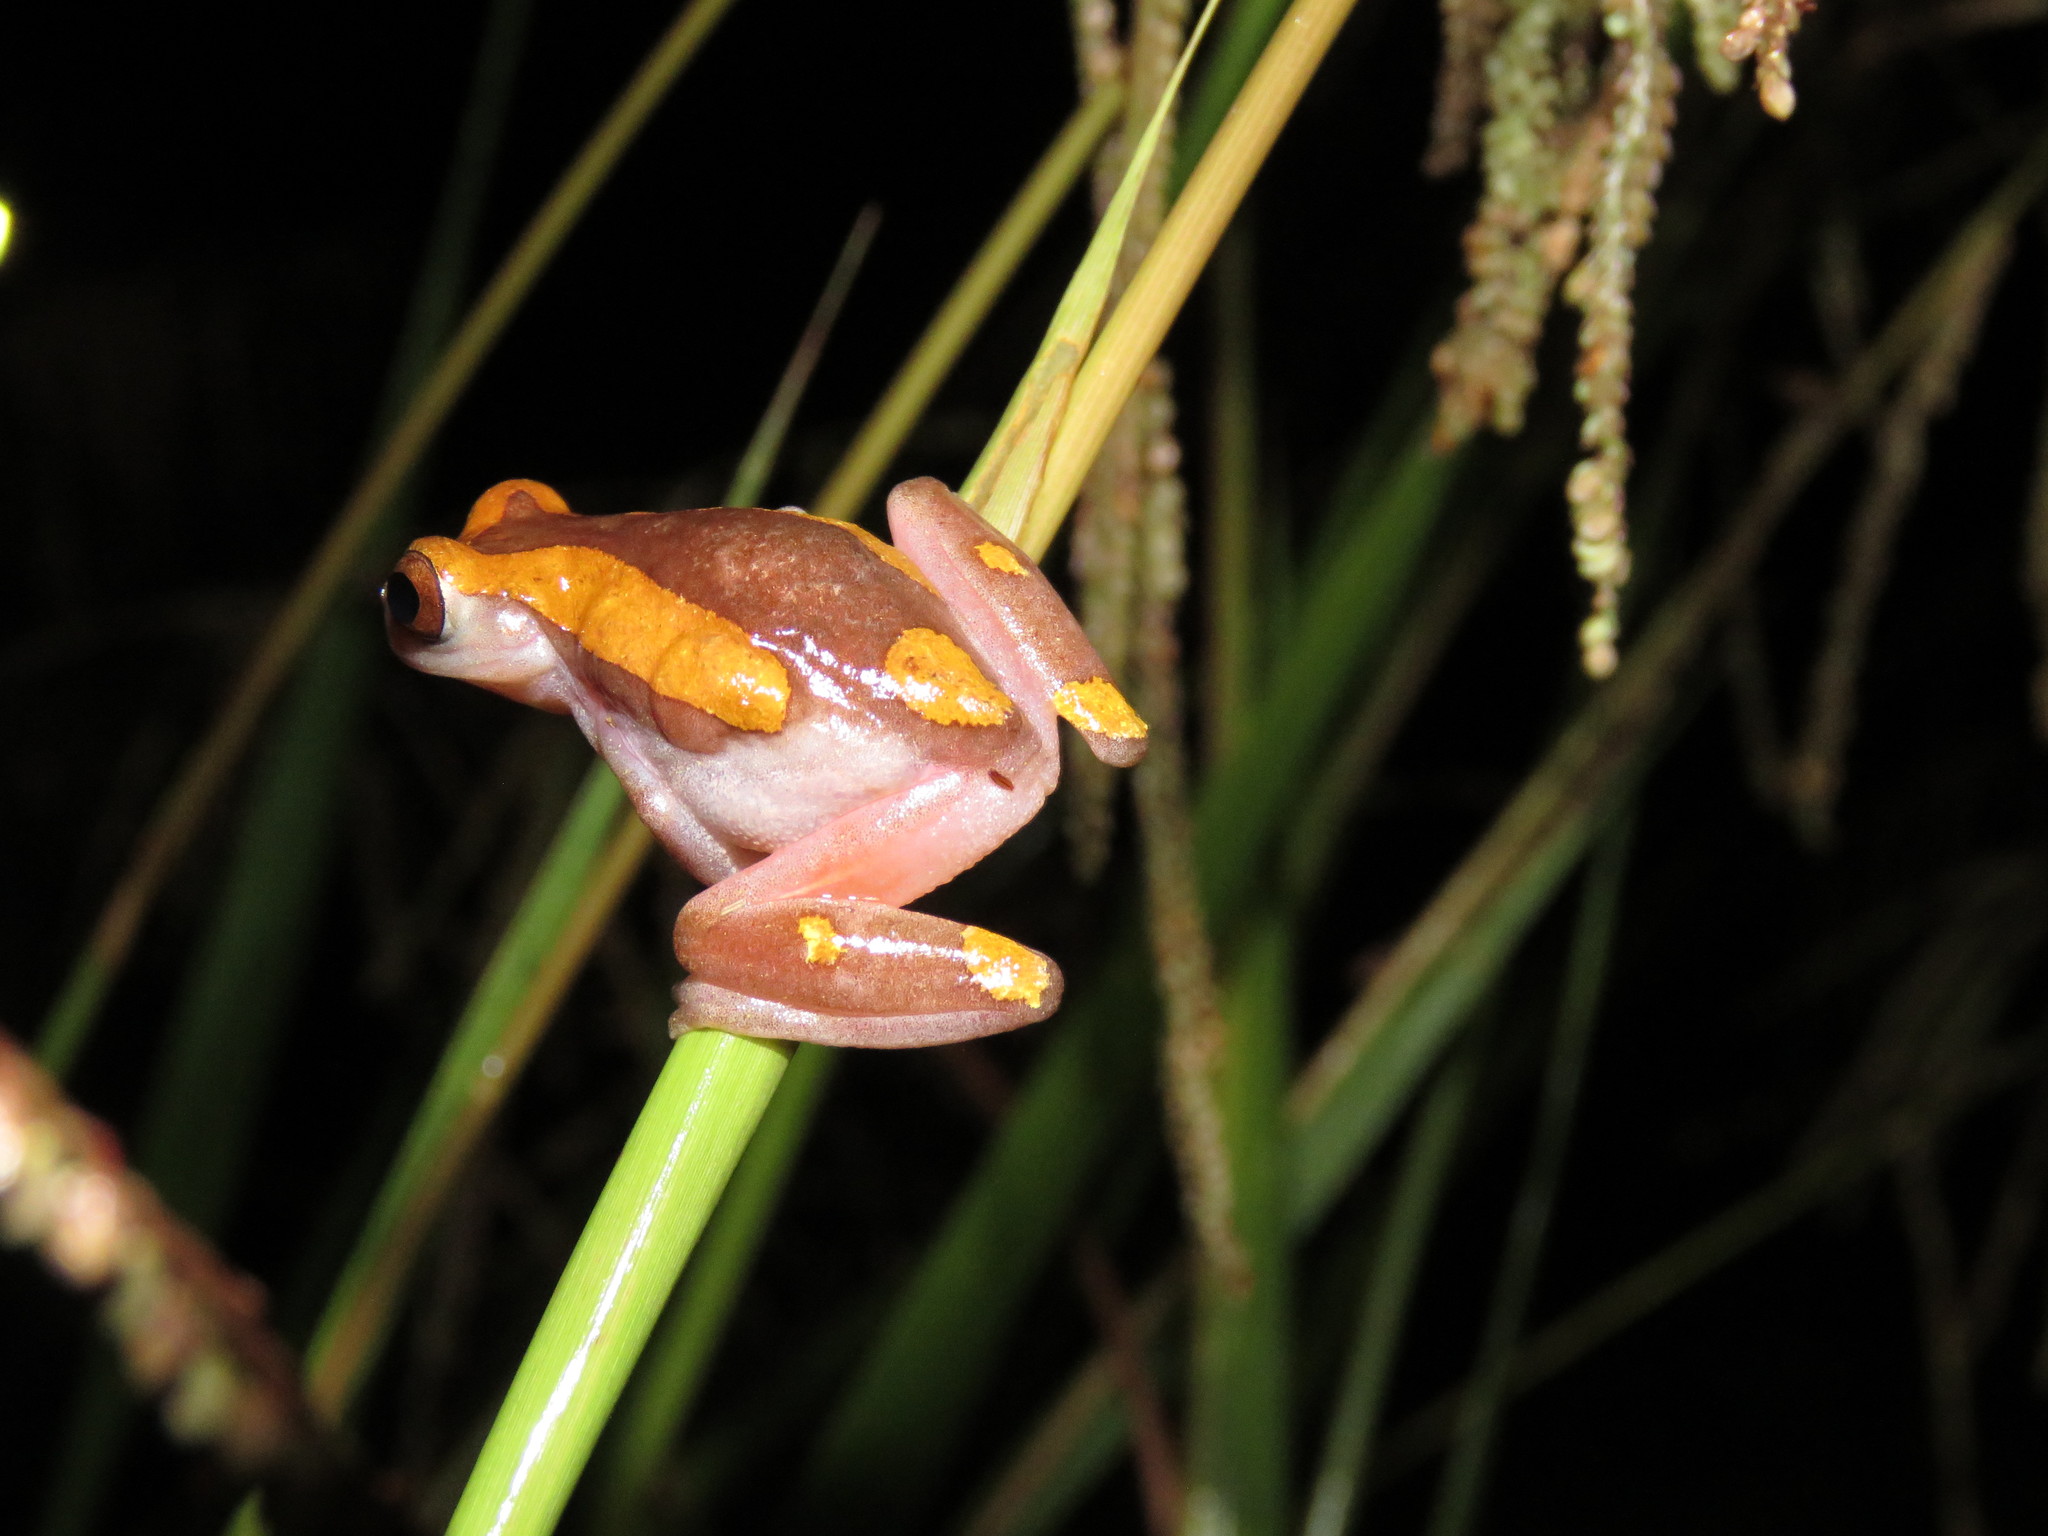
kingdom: Animalia
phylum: Chordata
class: Amphibia
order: Anura
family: Hylidae
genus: Dendropsophus
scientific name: Dendropsophus arndti
